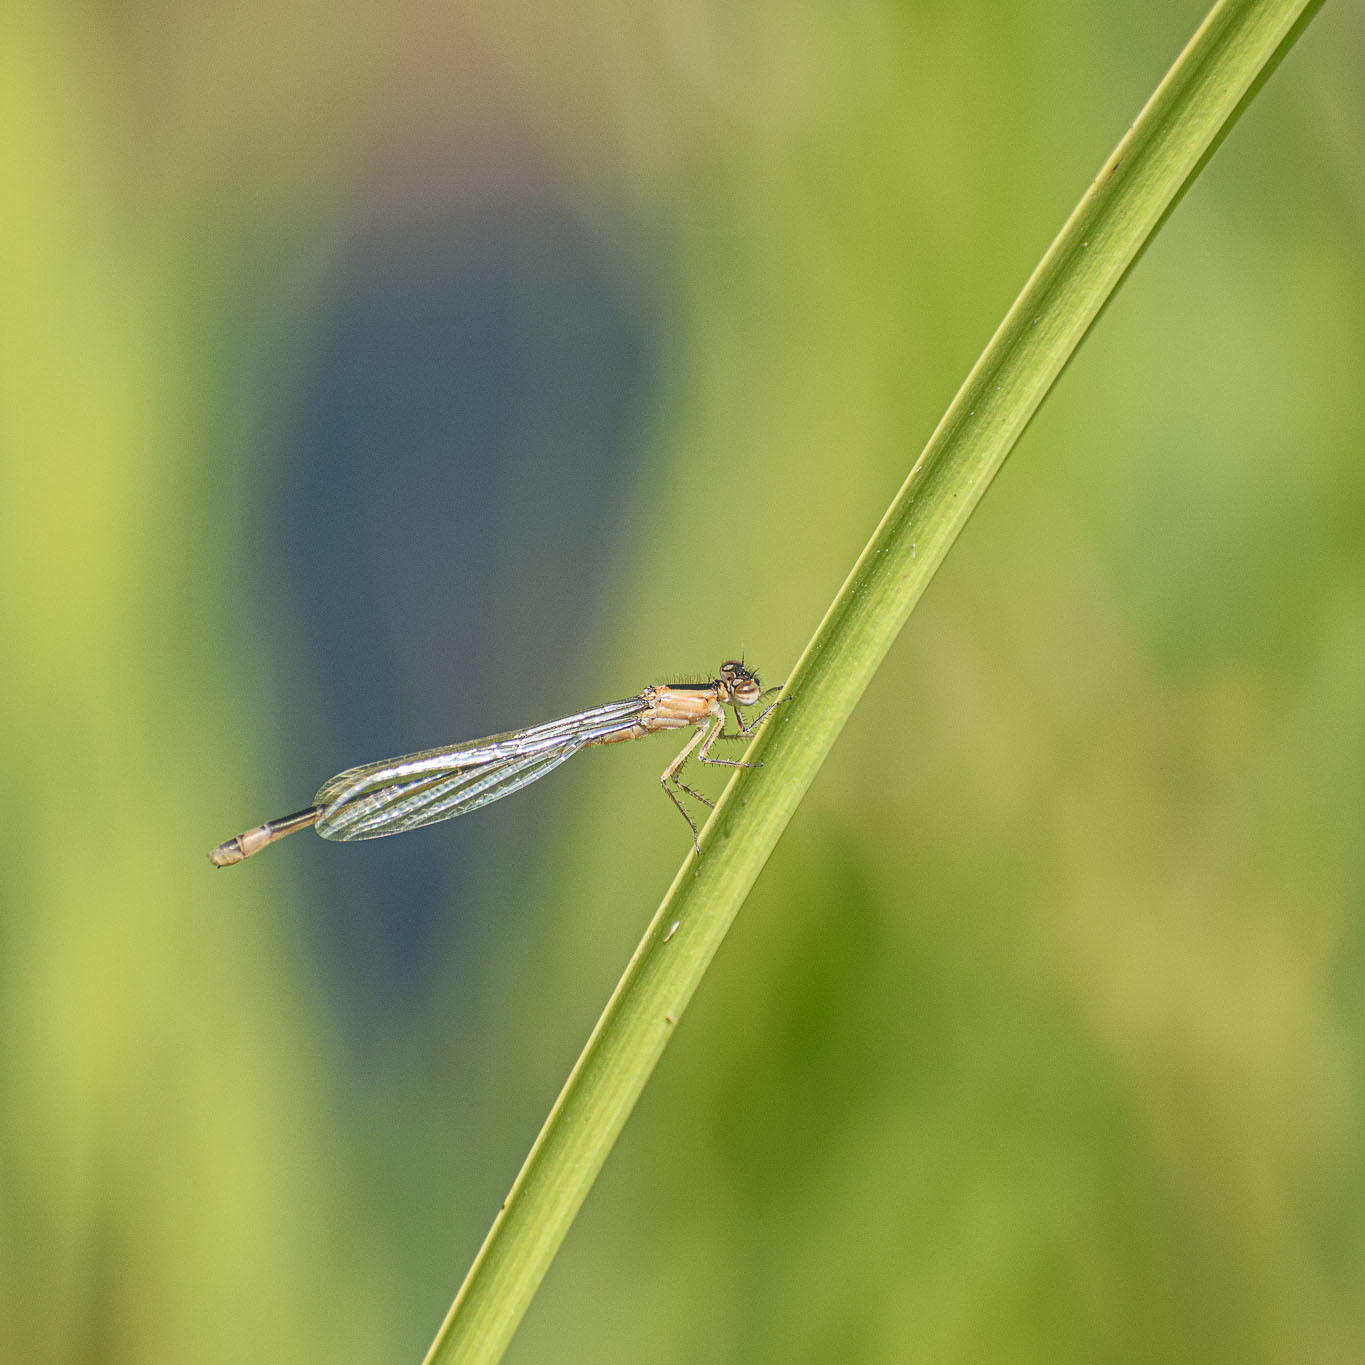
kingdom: Animalia
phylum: Arthropoda
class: Insecta
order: Odonata
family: Coenagrionidae
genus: Ischnura
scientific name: Ischnura elegans
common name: Blue-tailed damselfly
